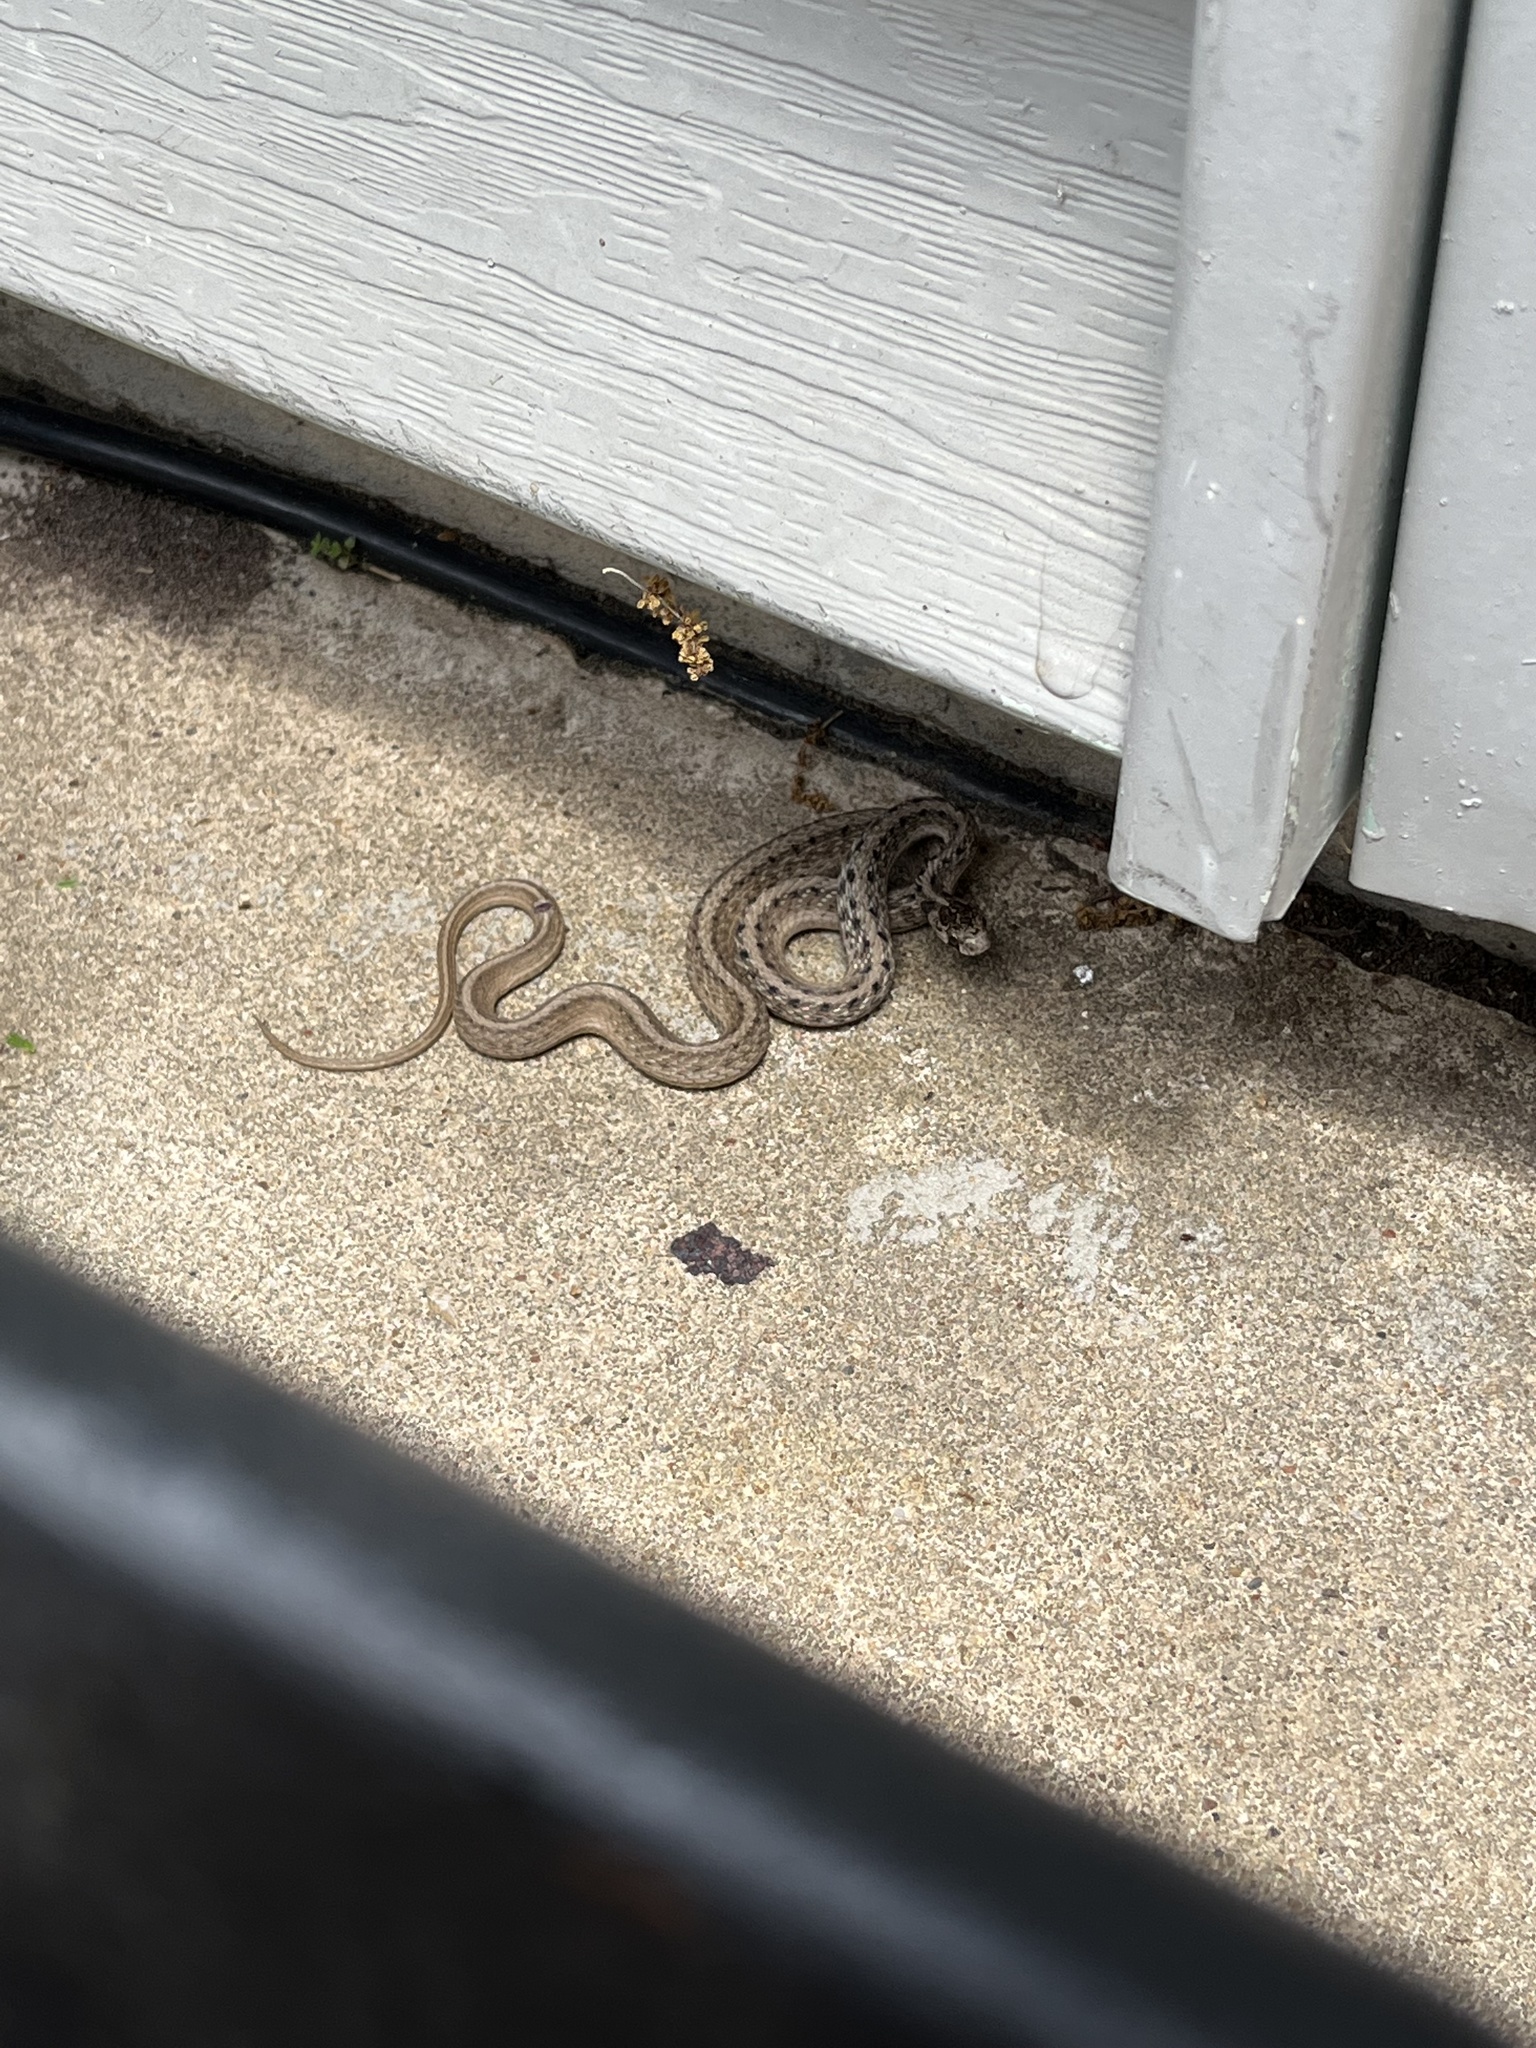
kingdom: Animalia
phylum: Chordata
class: Squamata
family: Colubridae
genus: Storeria
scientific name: Storeria dekayi
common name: (dekay’s) brown snake
